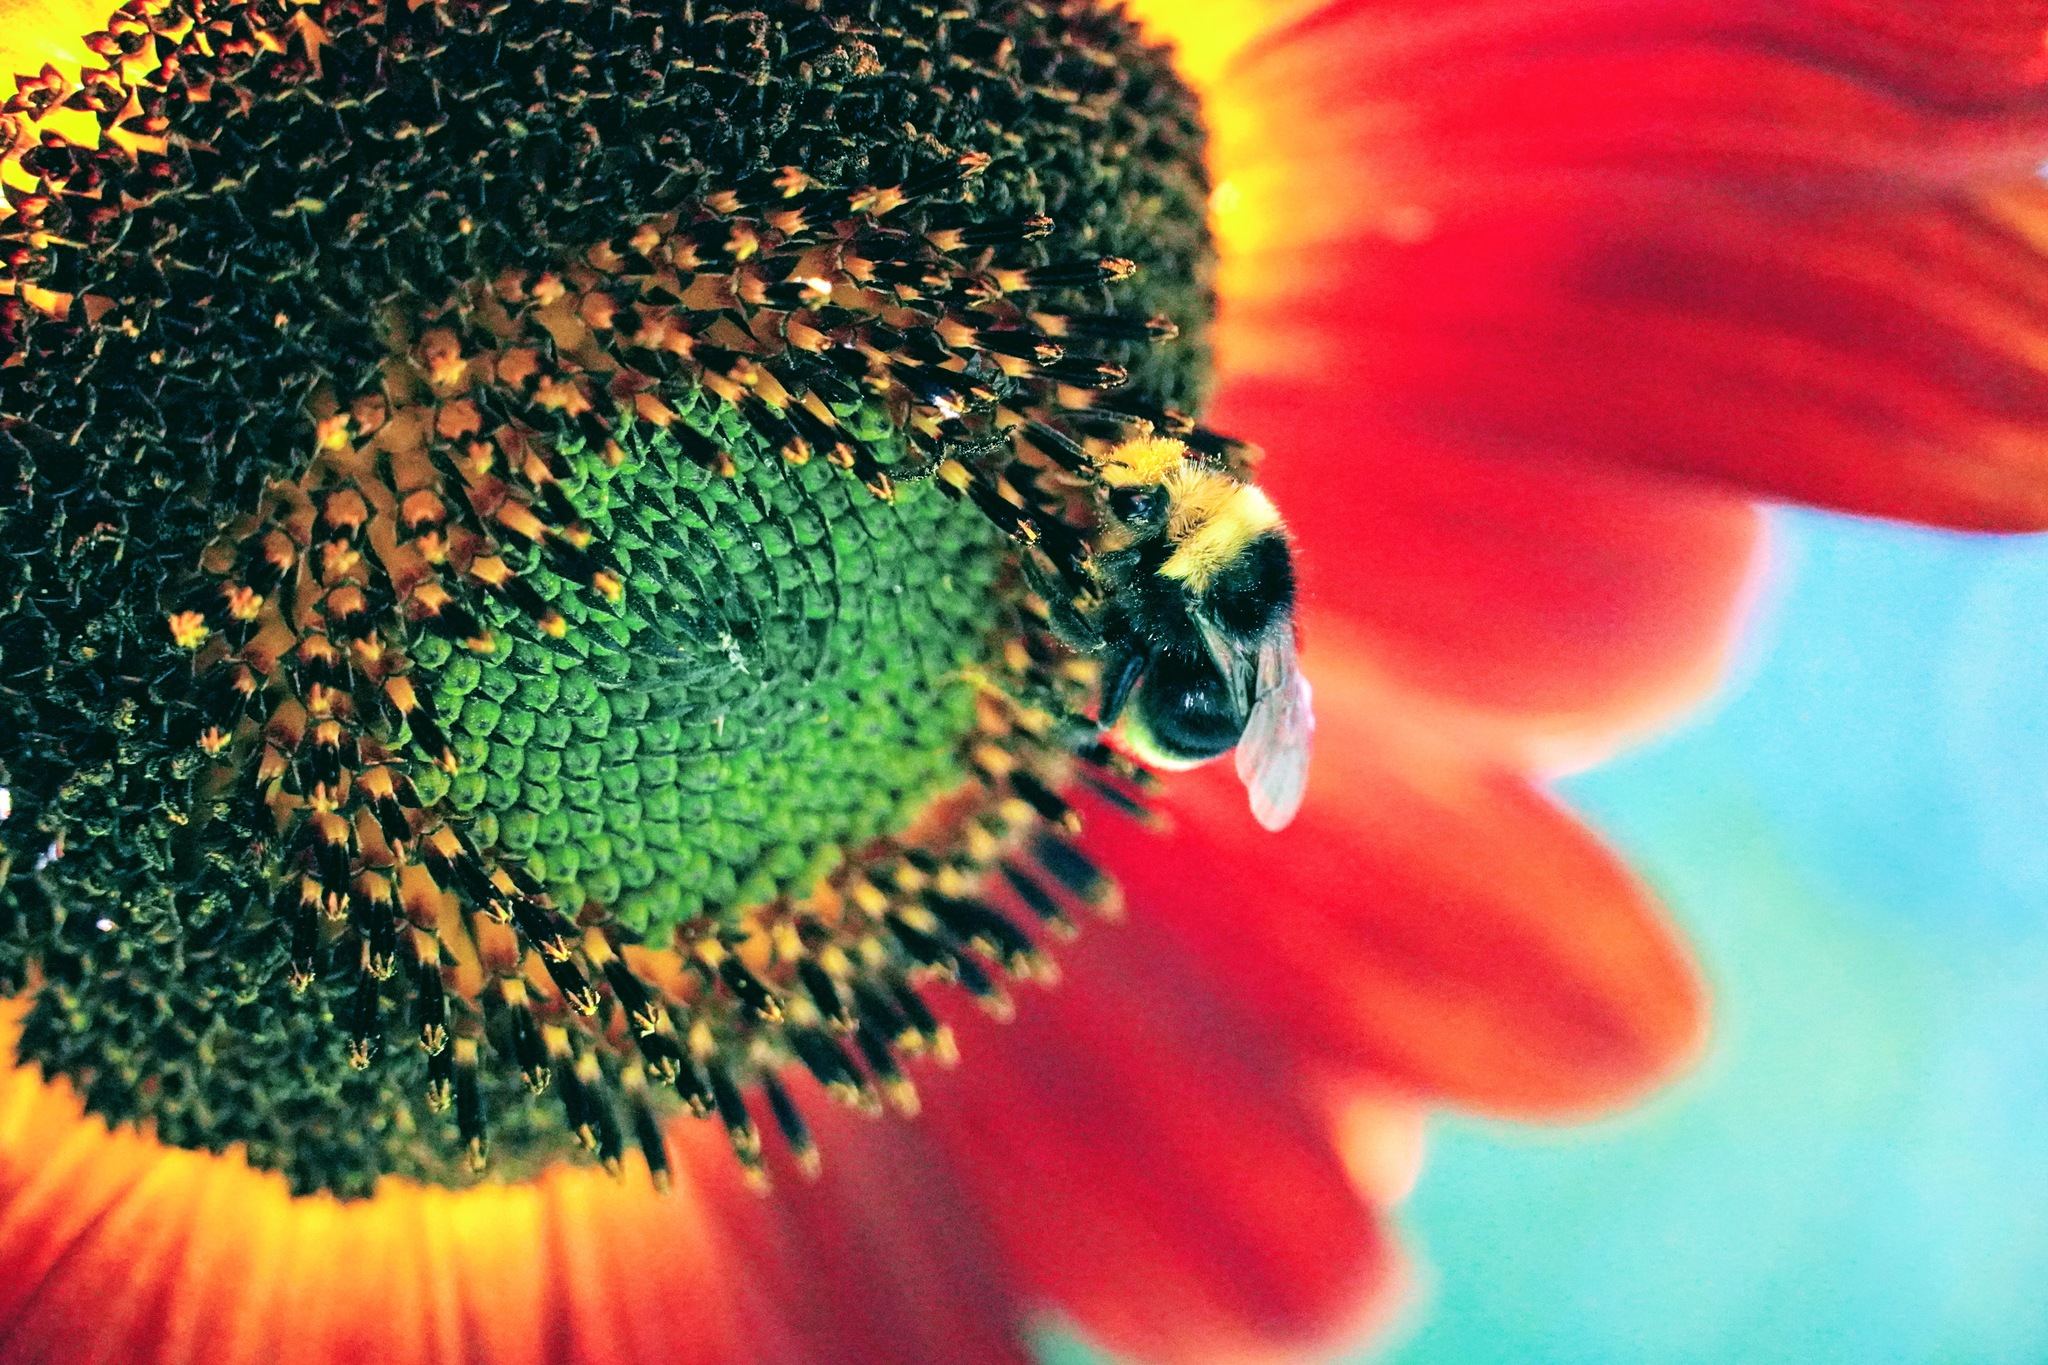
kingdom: Animalia
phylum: Arthropoda
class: Insecta
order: Hymenoptera
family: Apidae
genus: Bombus
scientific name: Bombus vosnesenskii
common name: Vosnesensky bumble bee
